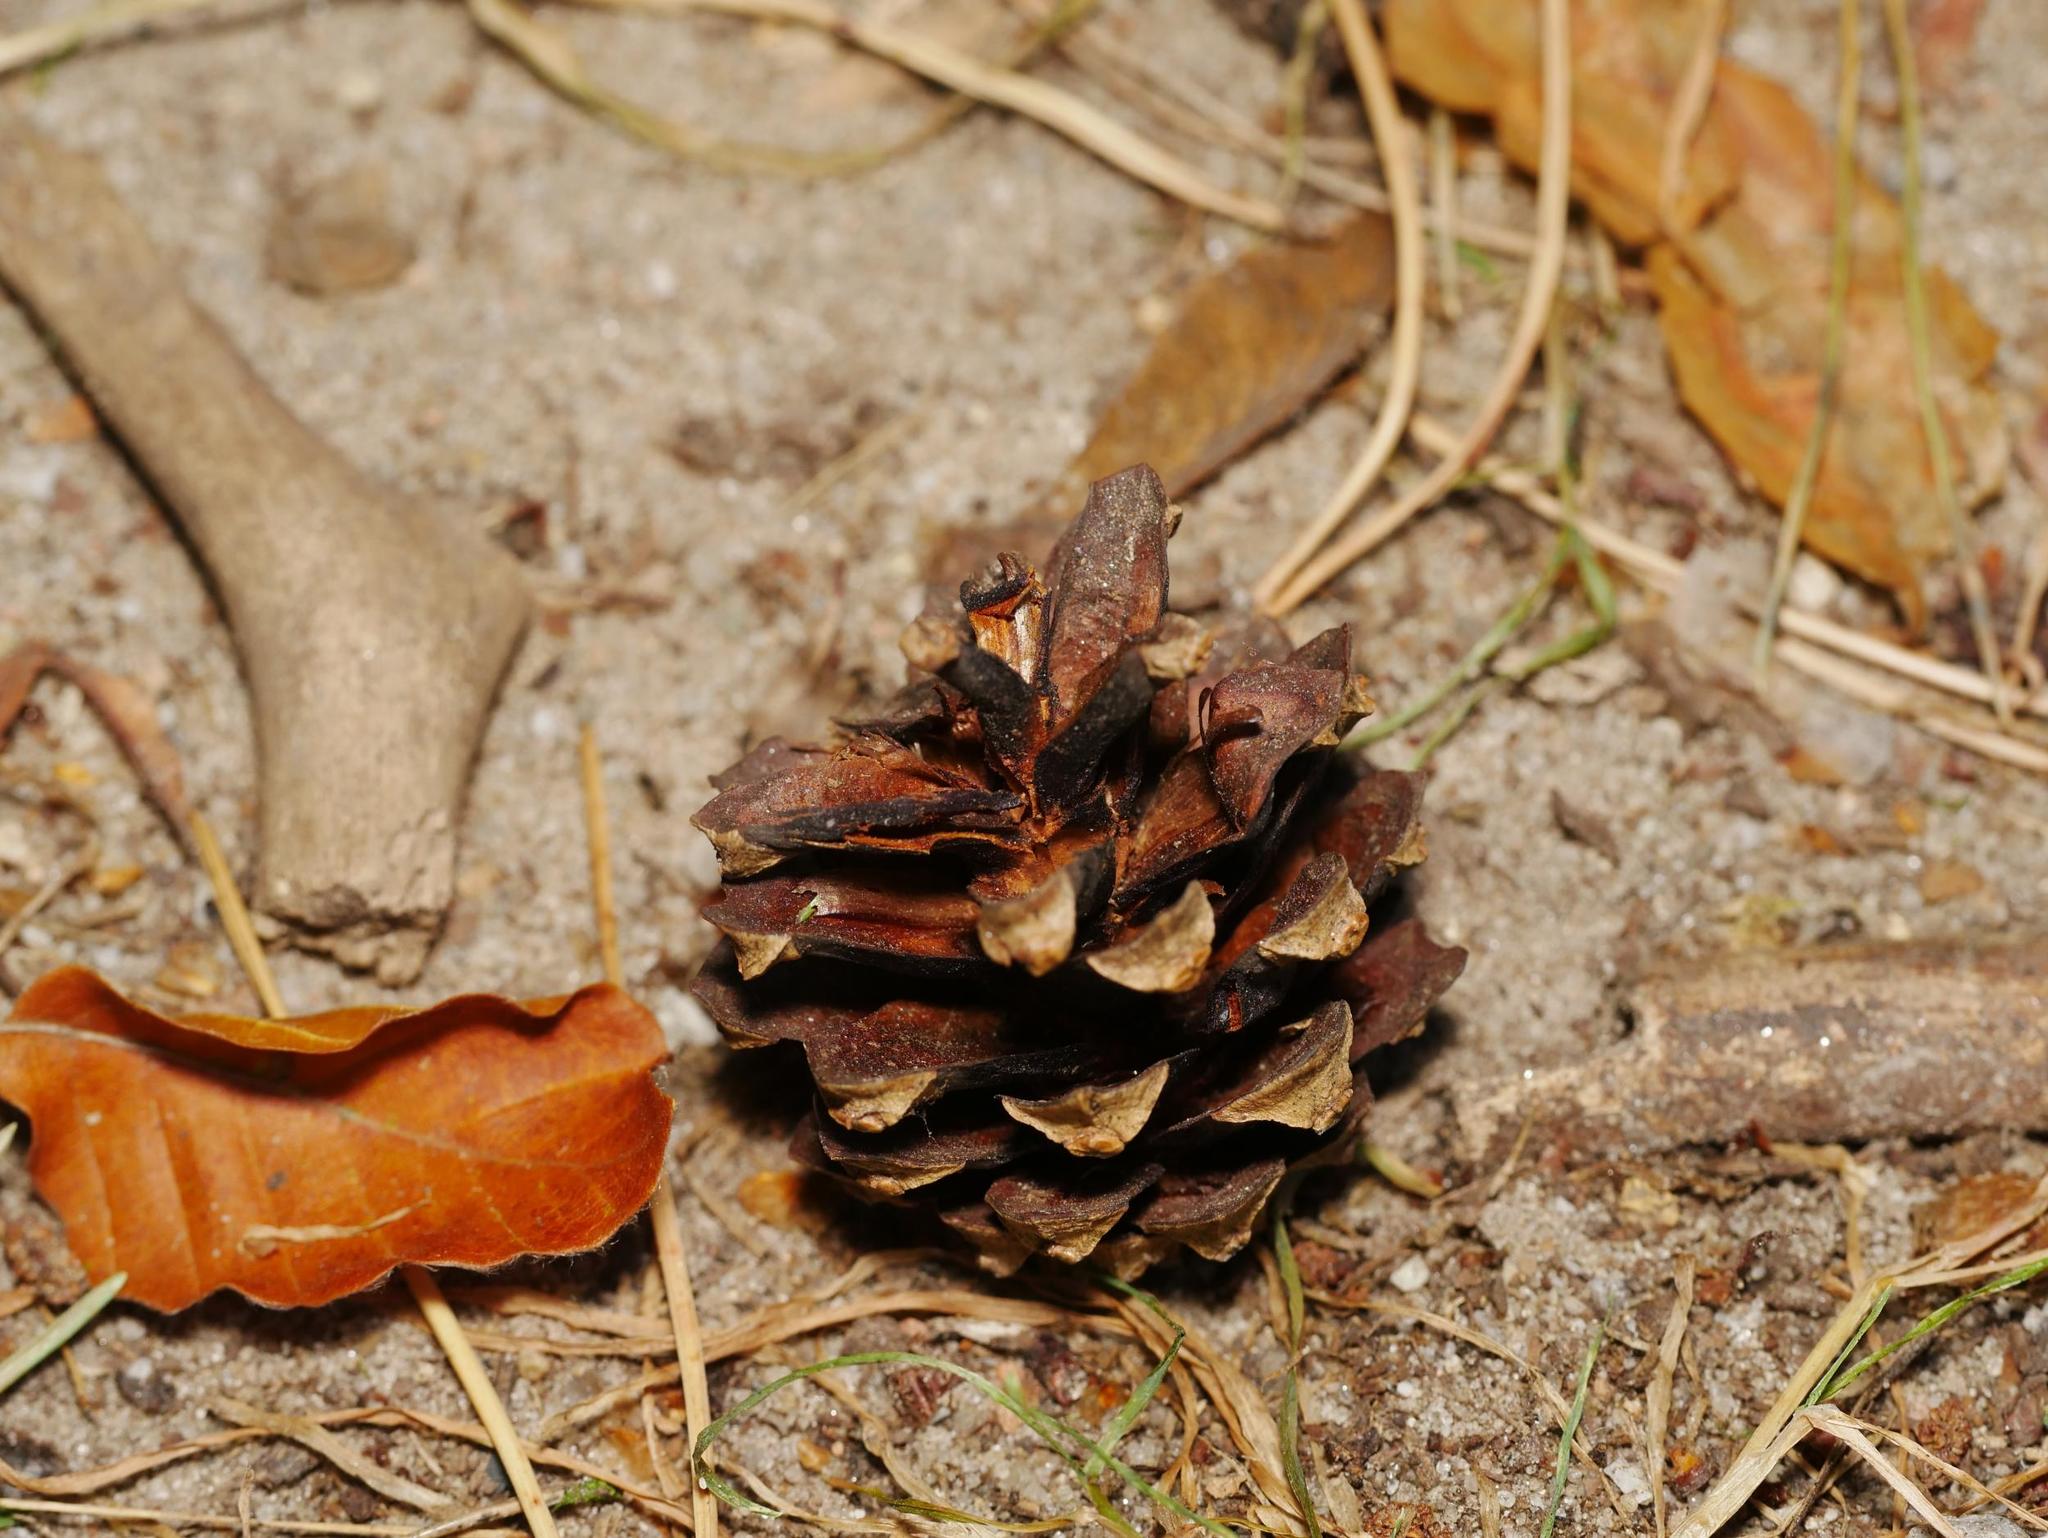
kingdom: Plantae
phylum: Tracheophyta
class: Pinopsida
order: Pinales
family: Pinaceae
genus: Pinus
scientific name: Pinus sylvestris
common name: Scots pine
